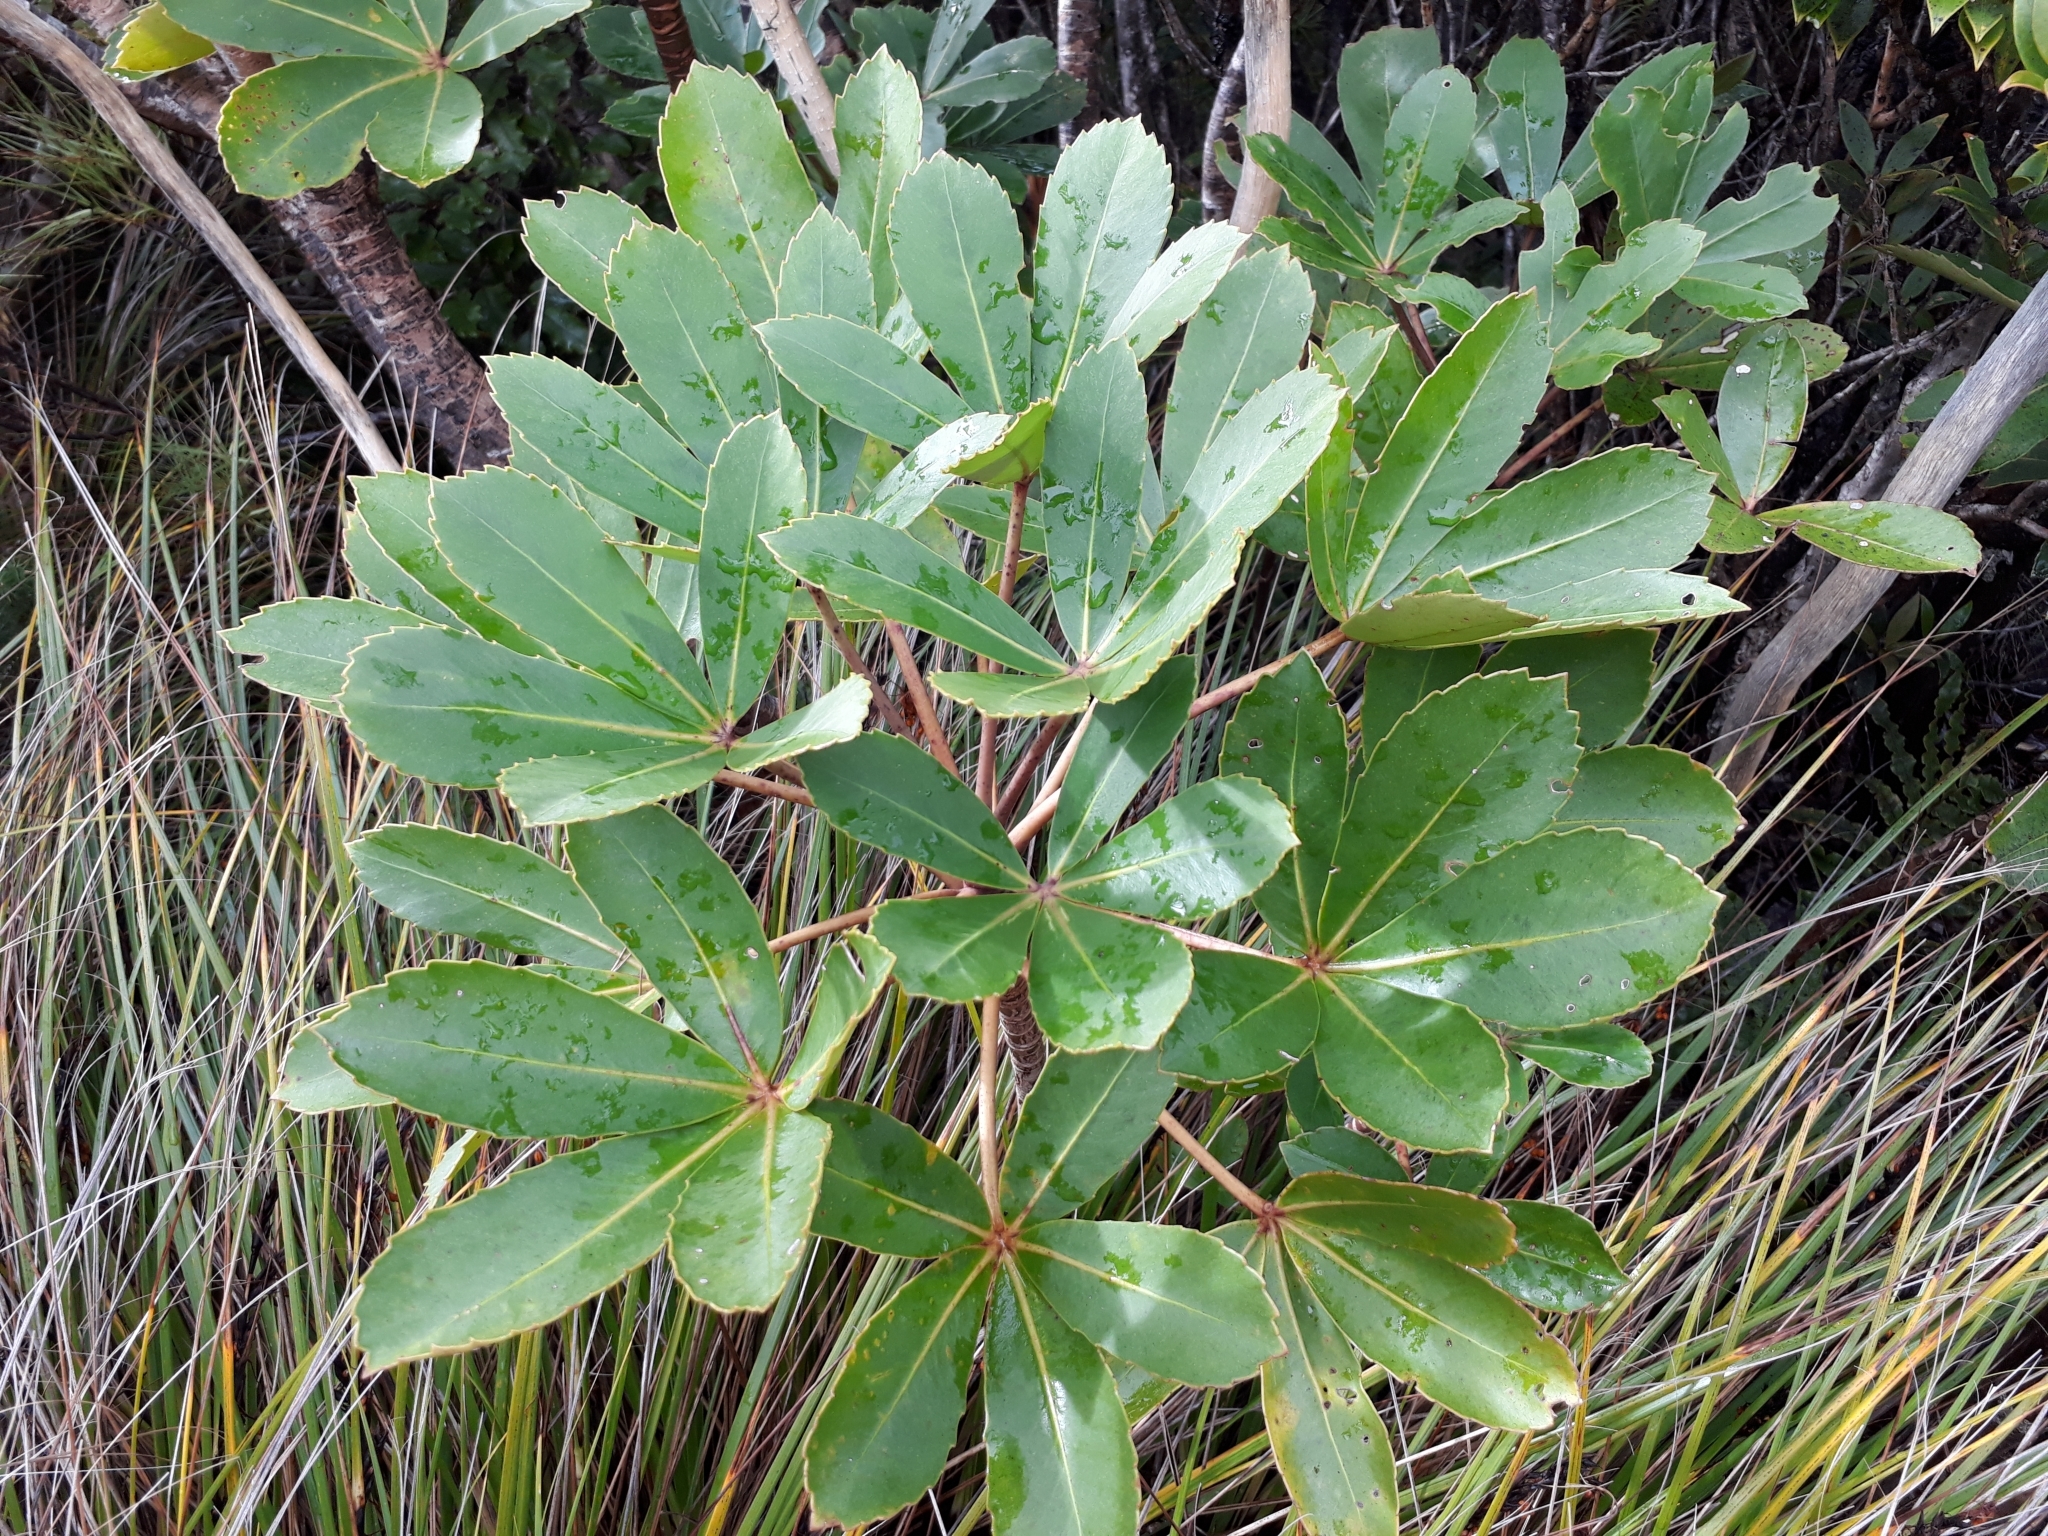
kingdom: Plantae
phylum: Tracheophyta
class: Magnoliopsida
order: Apiales
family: Araliaceae
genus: Neopanax
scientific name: Neopanax colensoi
